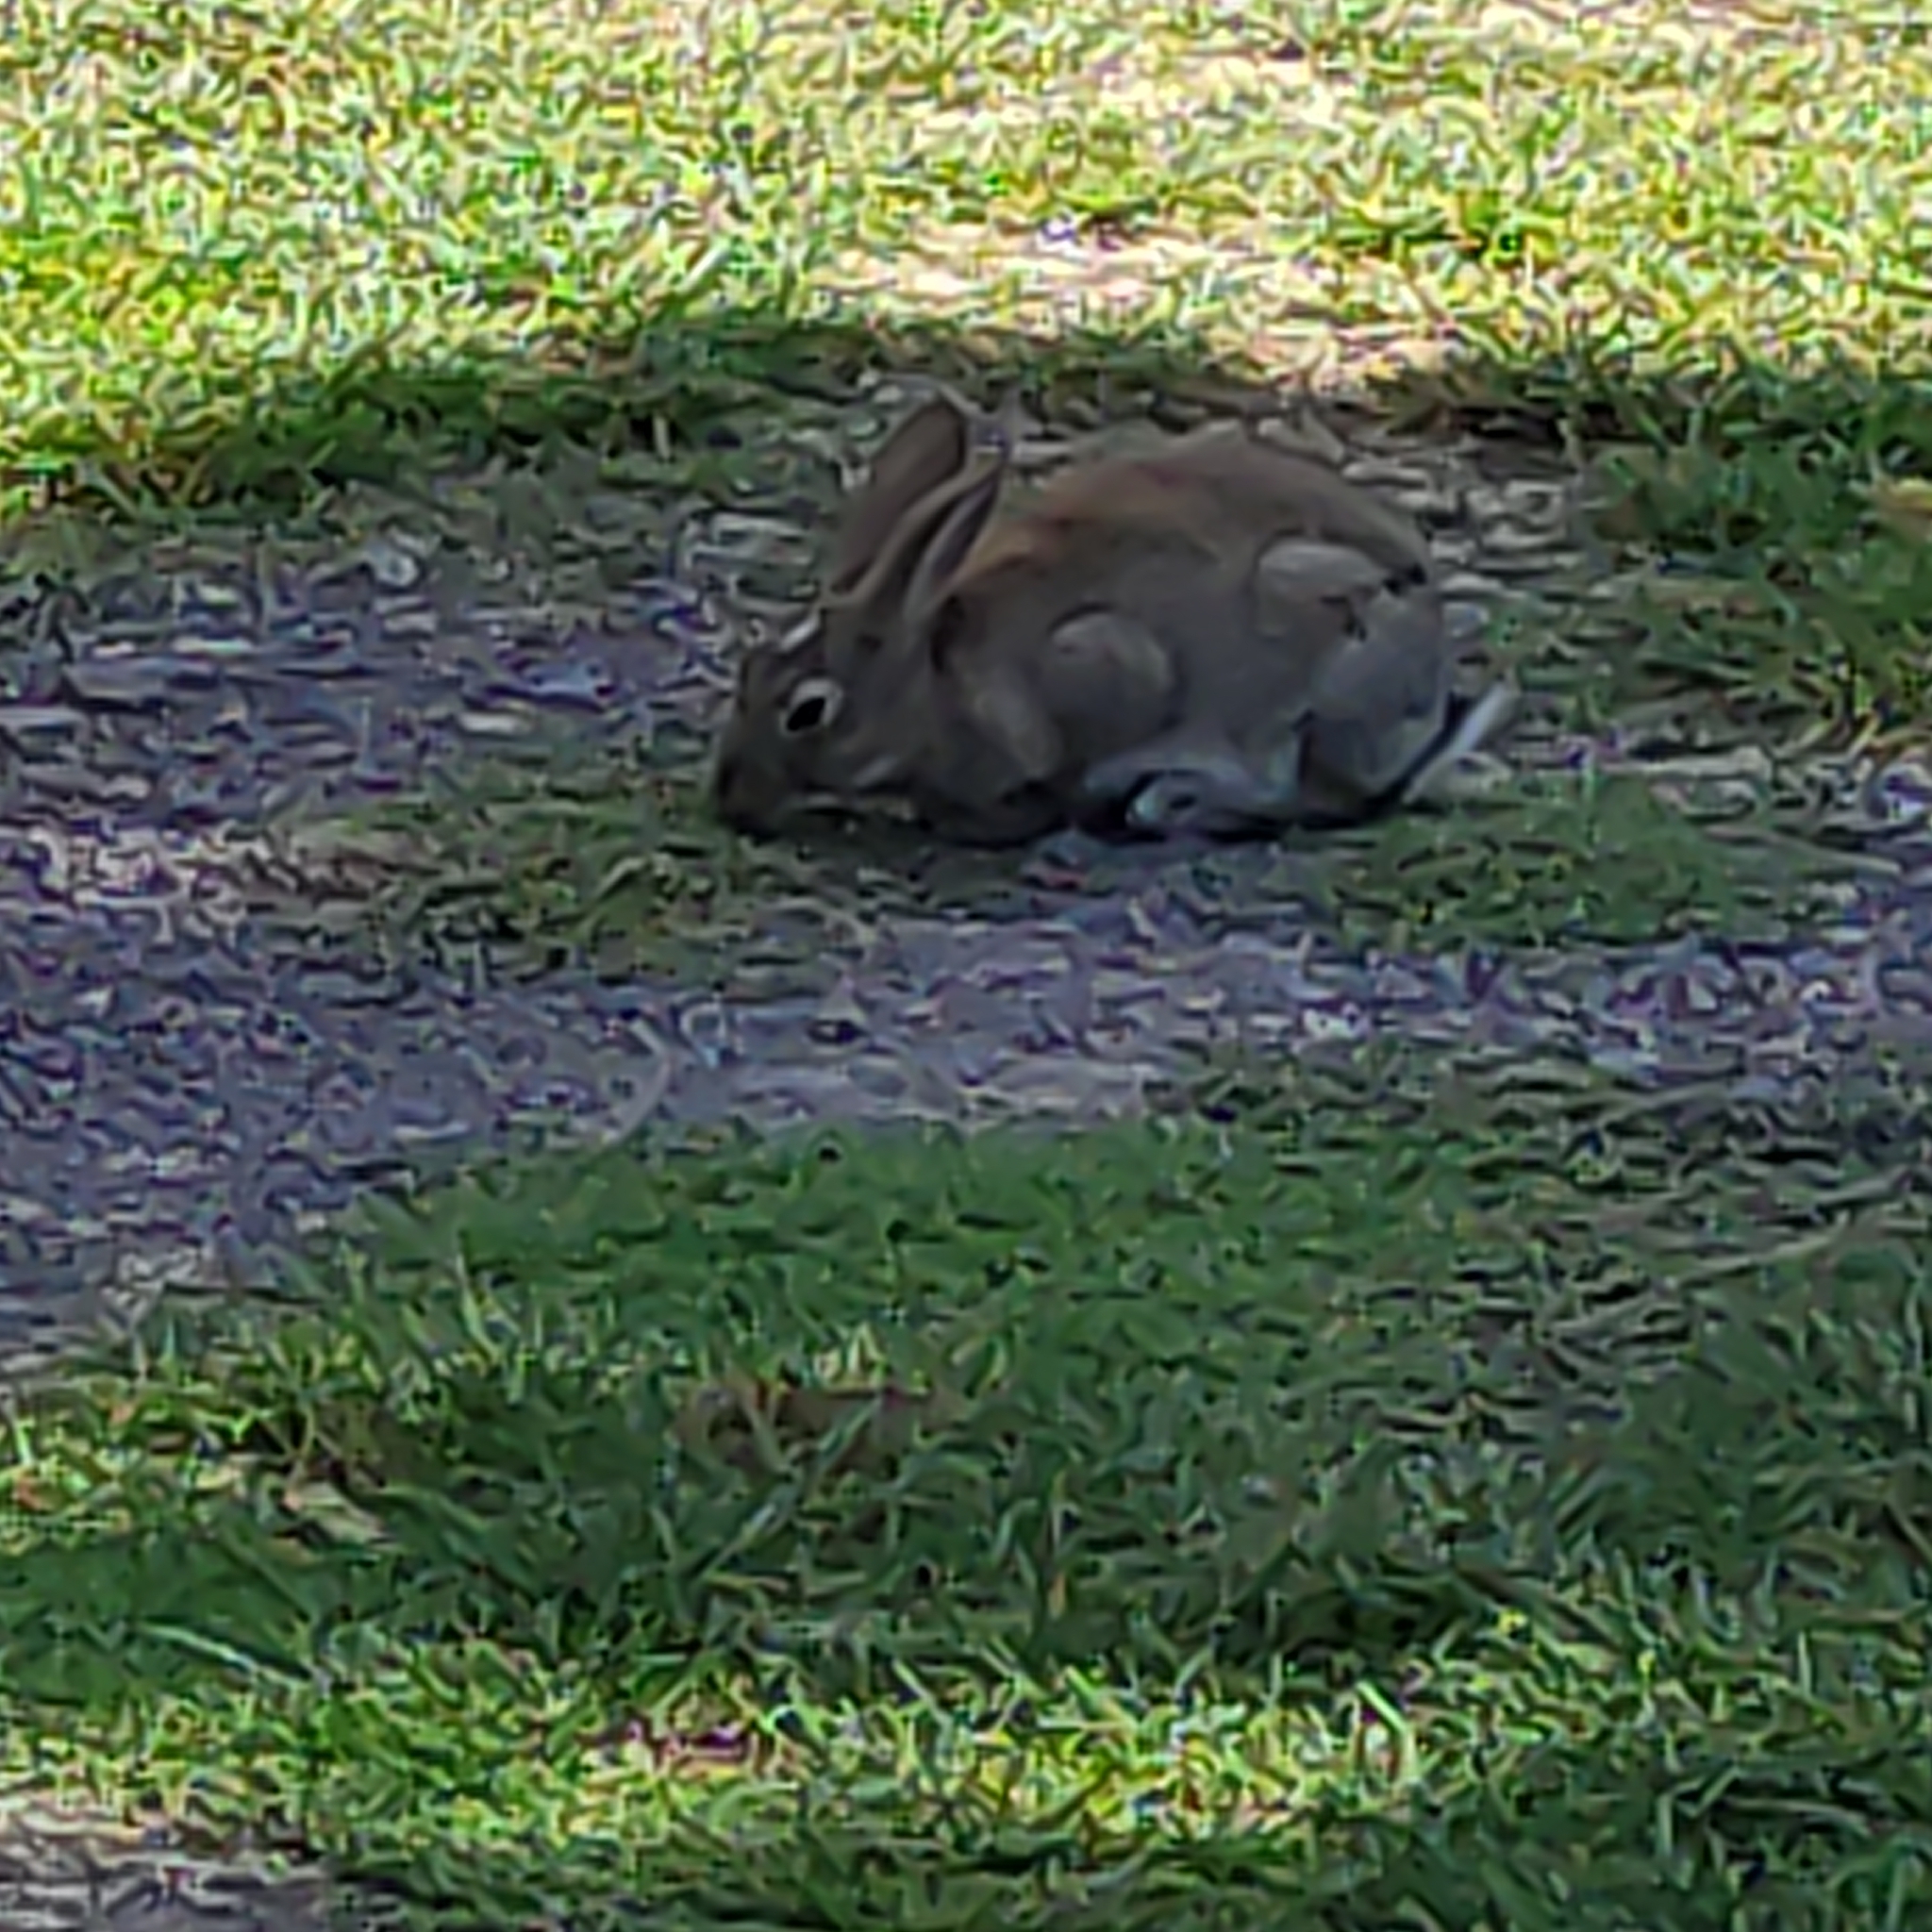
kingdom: Animalia
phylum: Chordata
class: Mammalia
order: Lagomorpha
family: Leporidae
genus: Oryctolagus
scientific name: Oryctolagus cuniculus
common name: European rabbit
